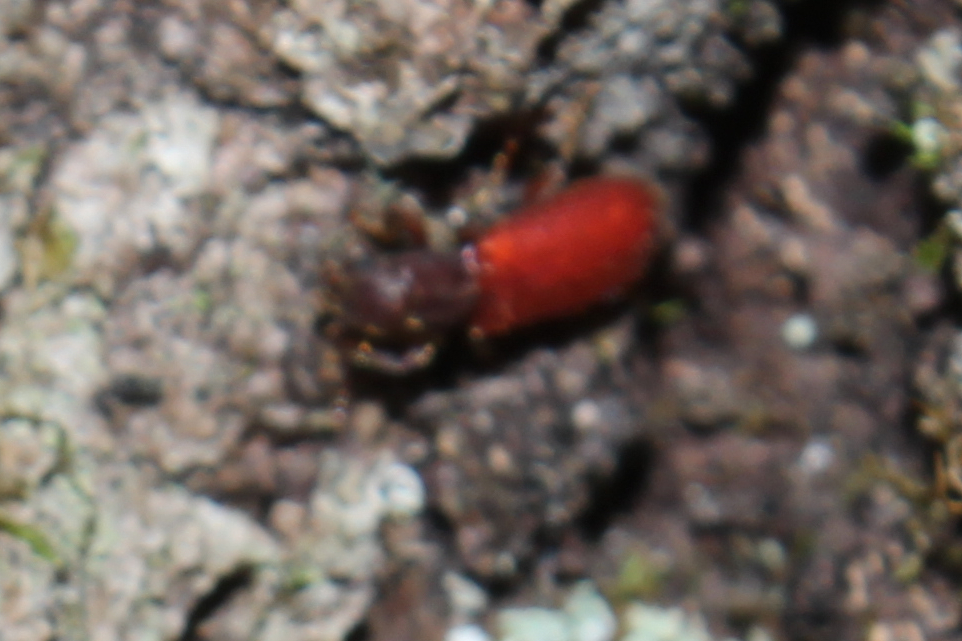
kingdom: Animalia
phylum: Arthropoda
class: Insecta
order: Coleoptera
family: Thanerocleridae
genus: Zenodosus
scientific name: Zenodosus sanguineus
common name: Blood-colored checkered beetle
